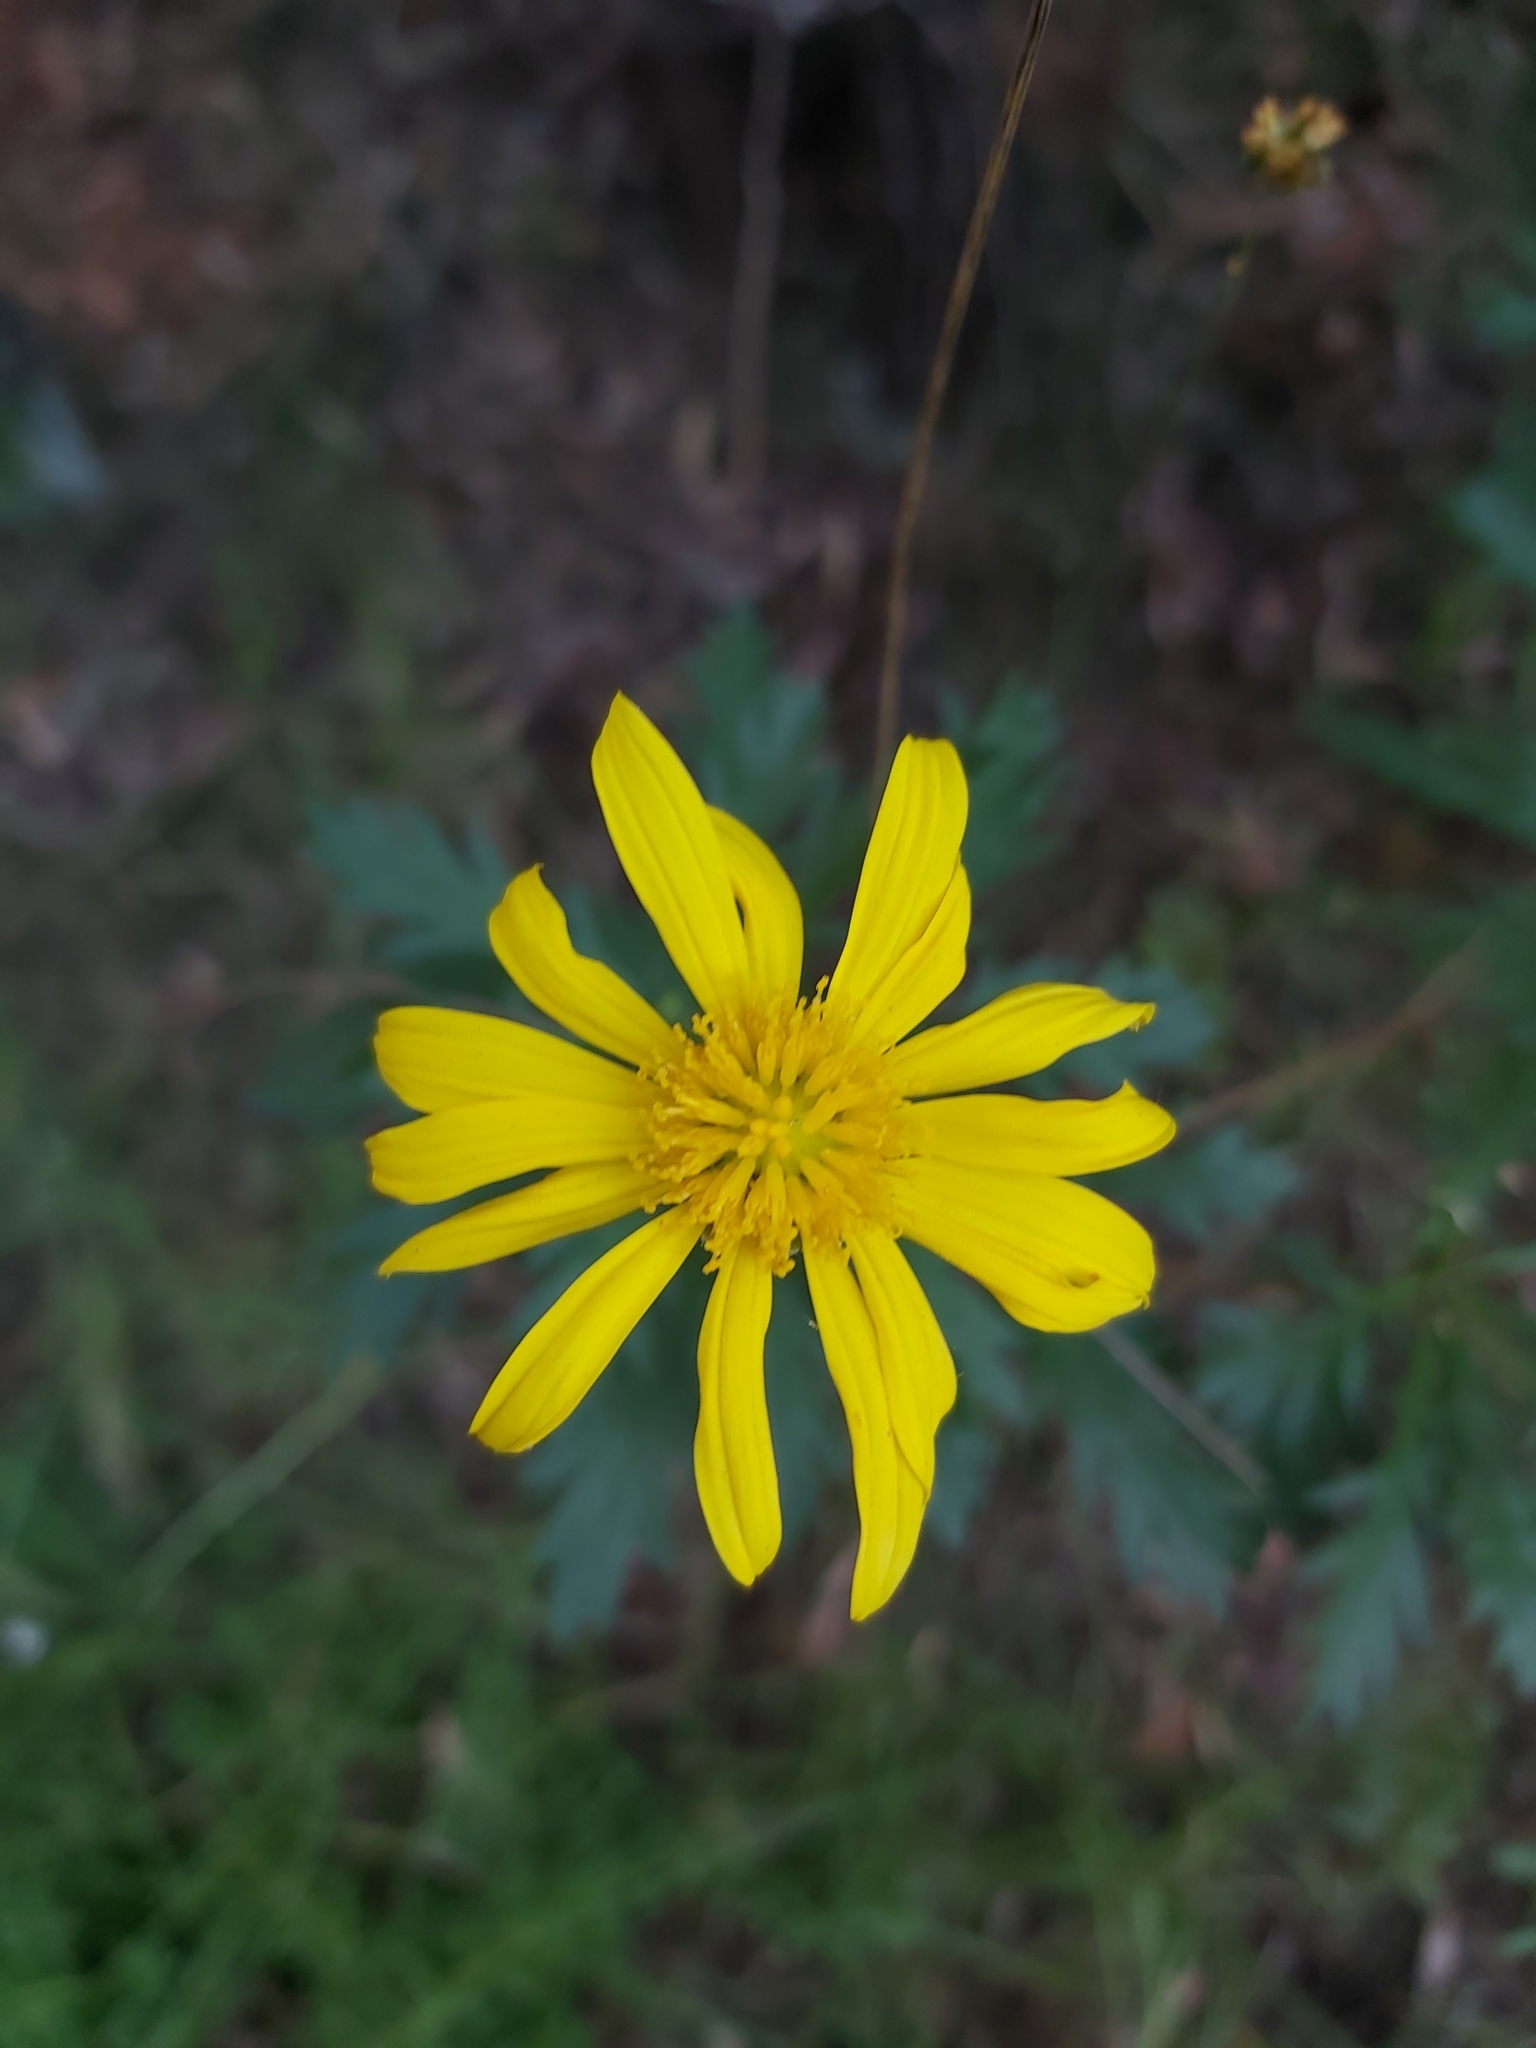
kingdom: Plantae
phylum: Tracheophyta
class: Magnoliopsida
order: Asterales
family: Asteraceae
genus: Euryops
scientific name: Euryops chrysanthemoides
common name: Bull's eye
